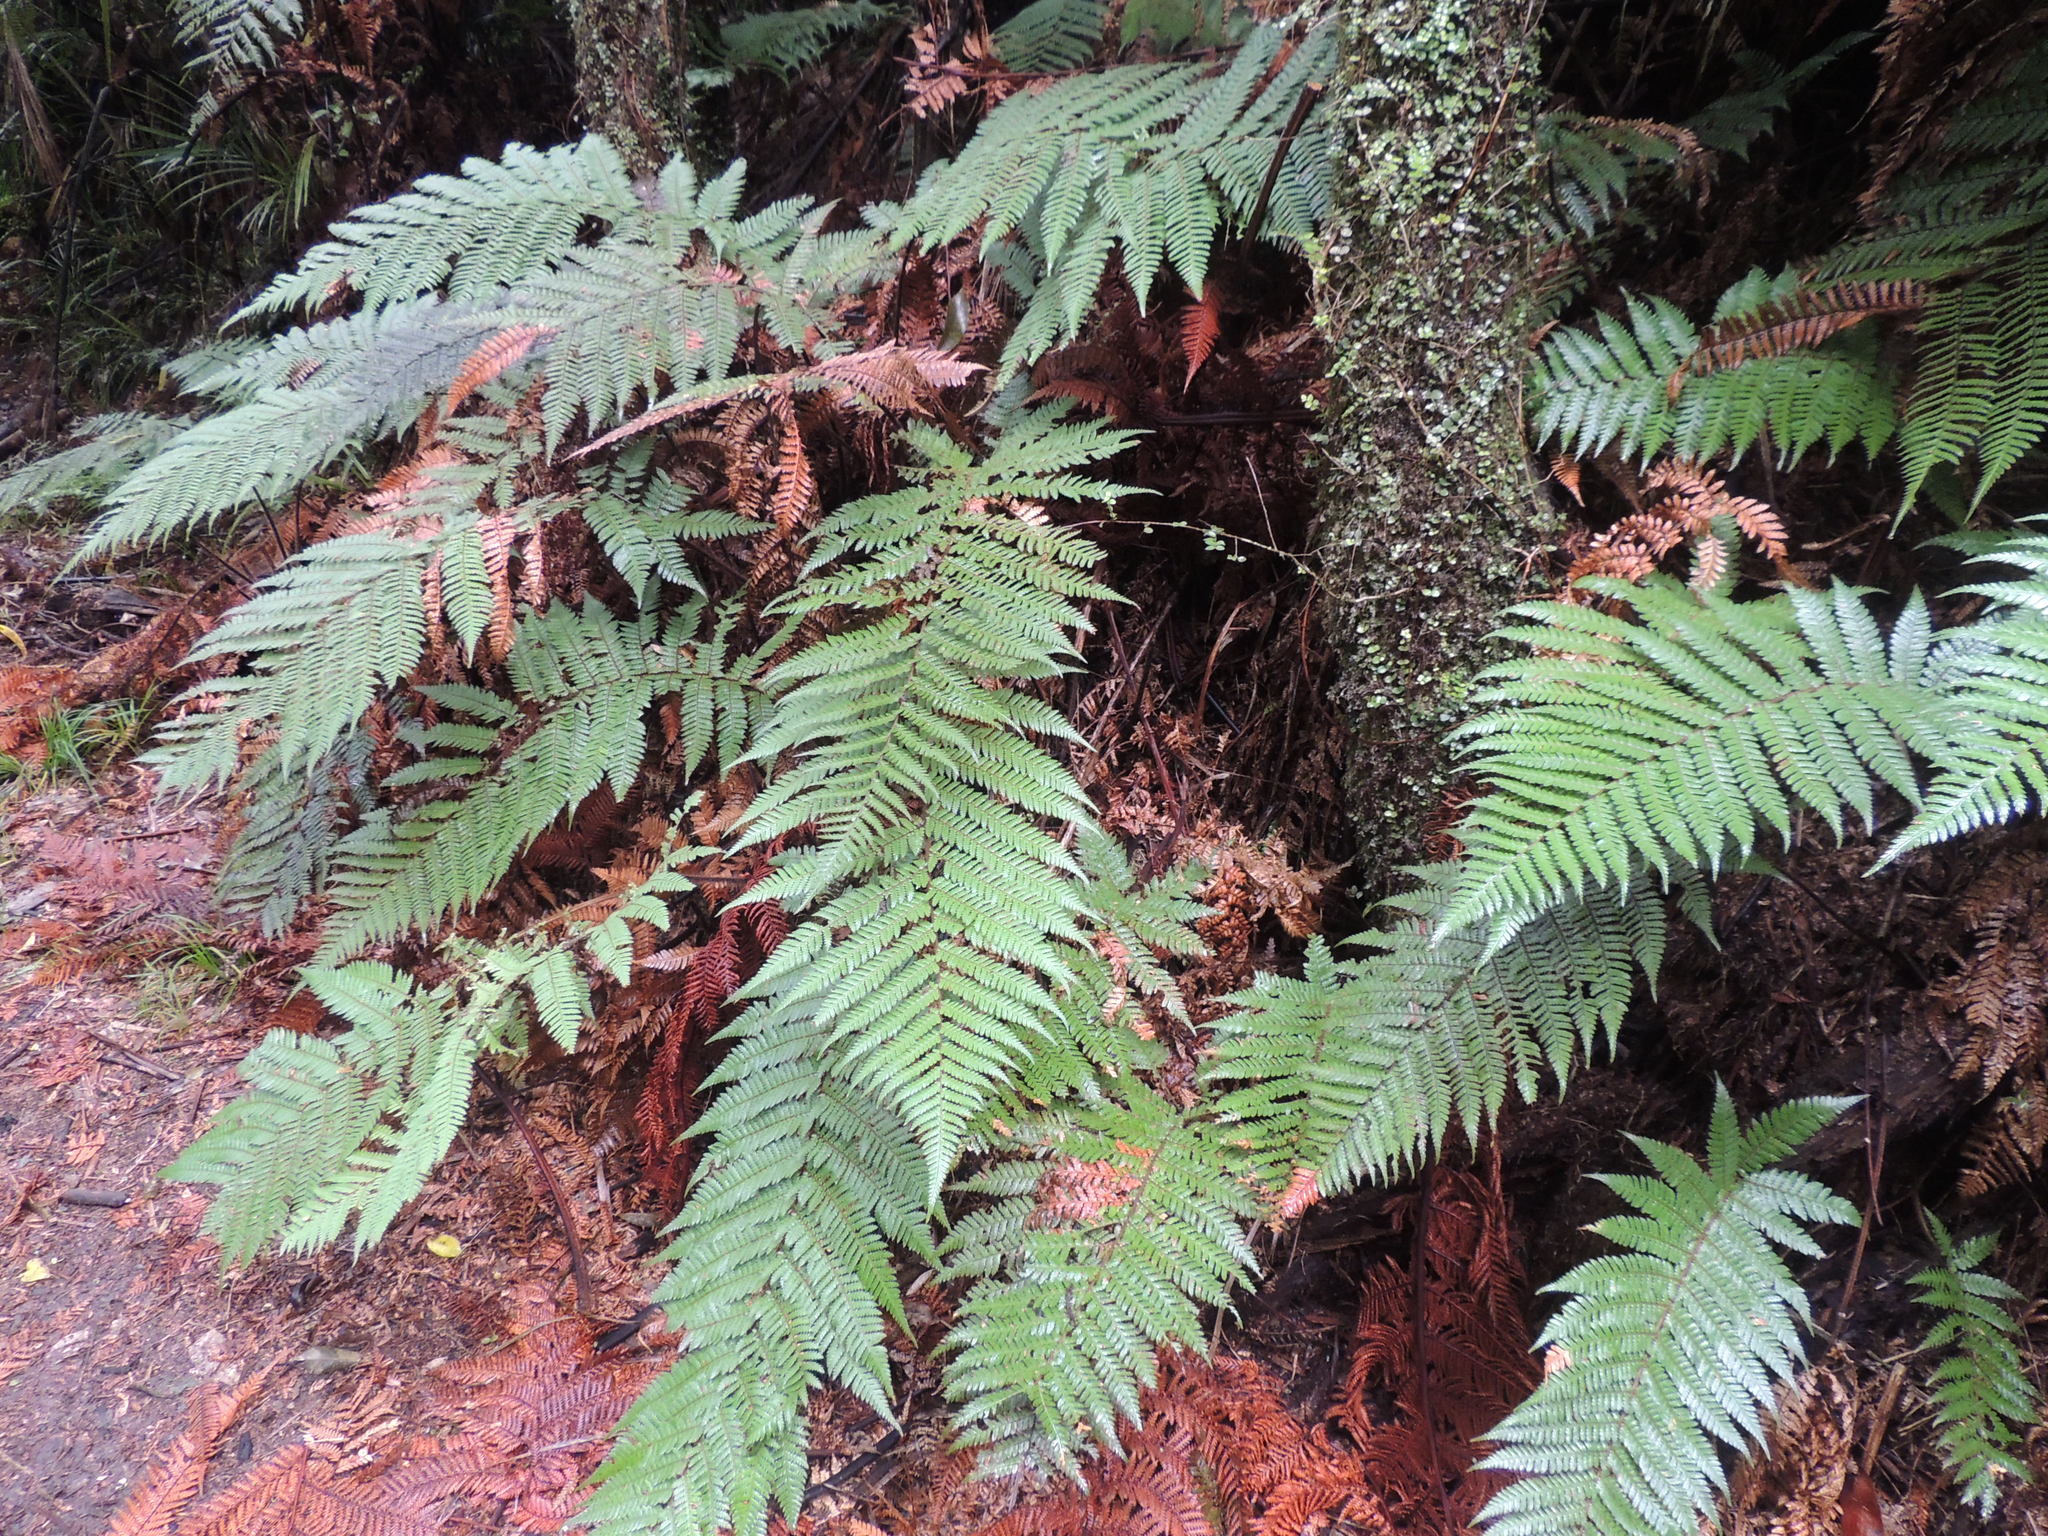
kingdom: Plantae
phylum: Tracheophyta
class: Polypodiopsida
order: Cyatheales
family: Dicksoniaceae
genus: Dicksonia
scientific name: Dicksonia squarrosa
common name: Hard treefern
